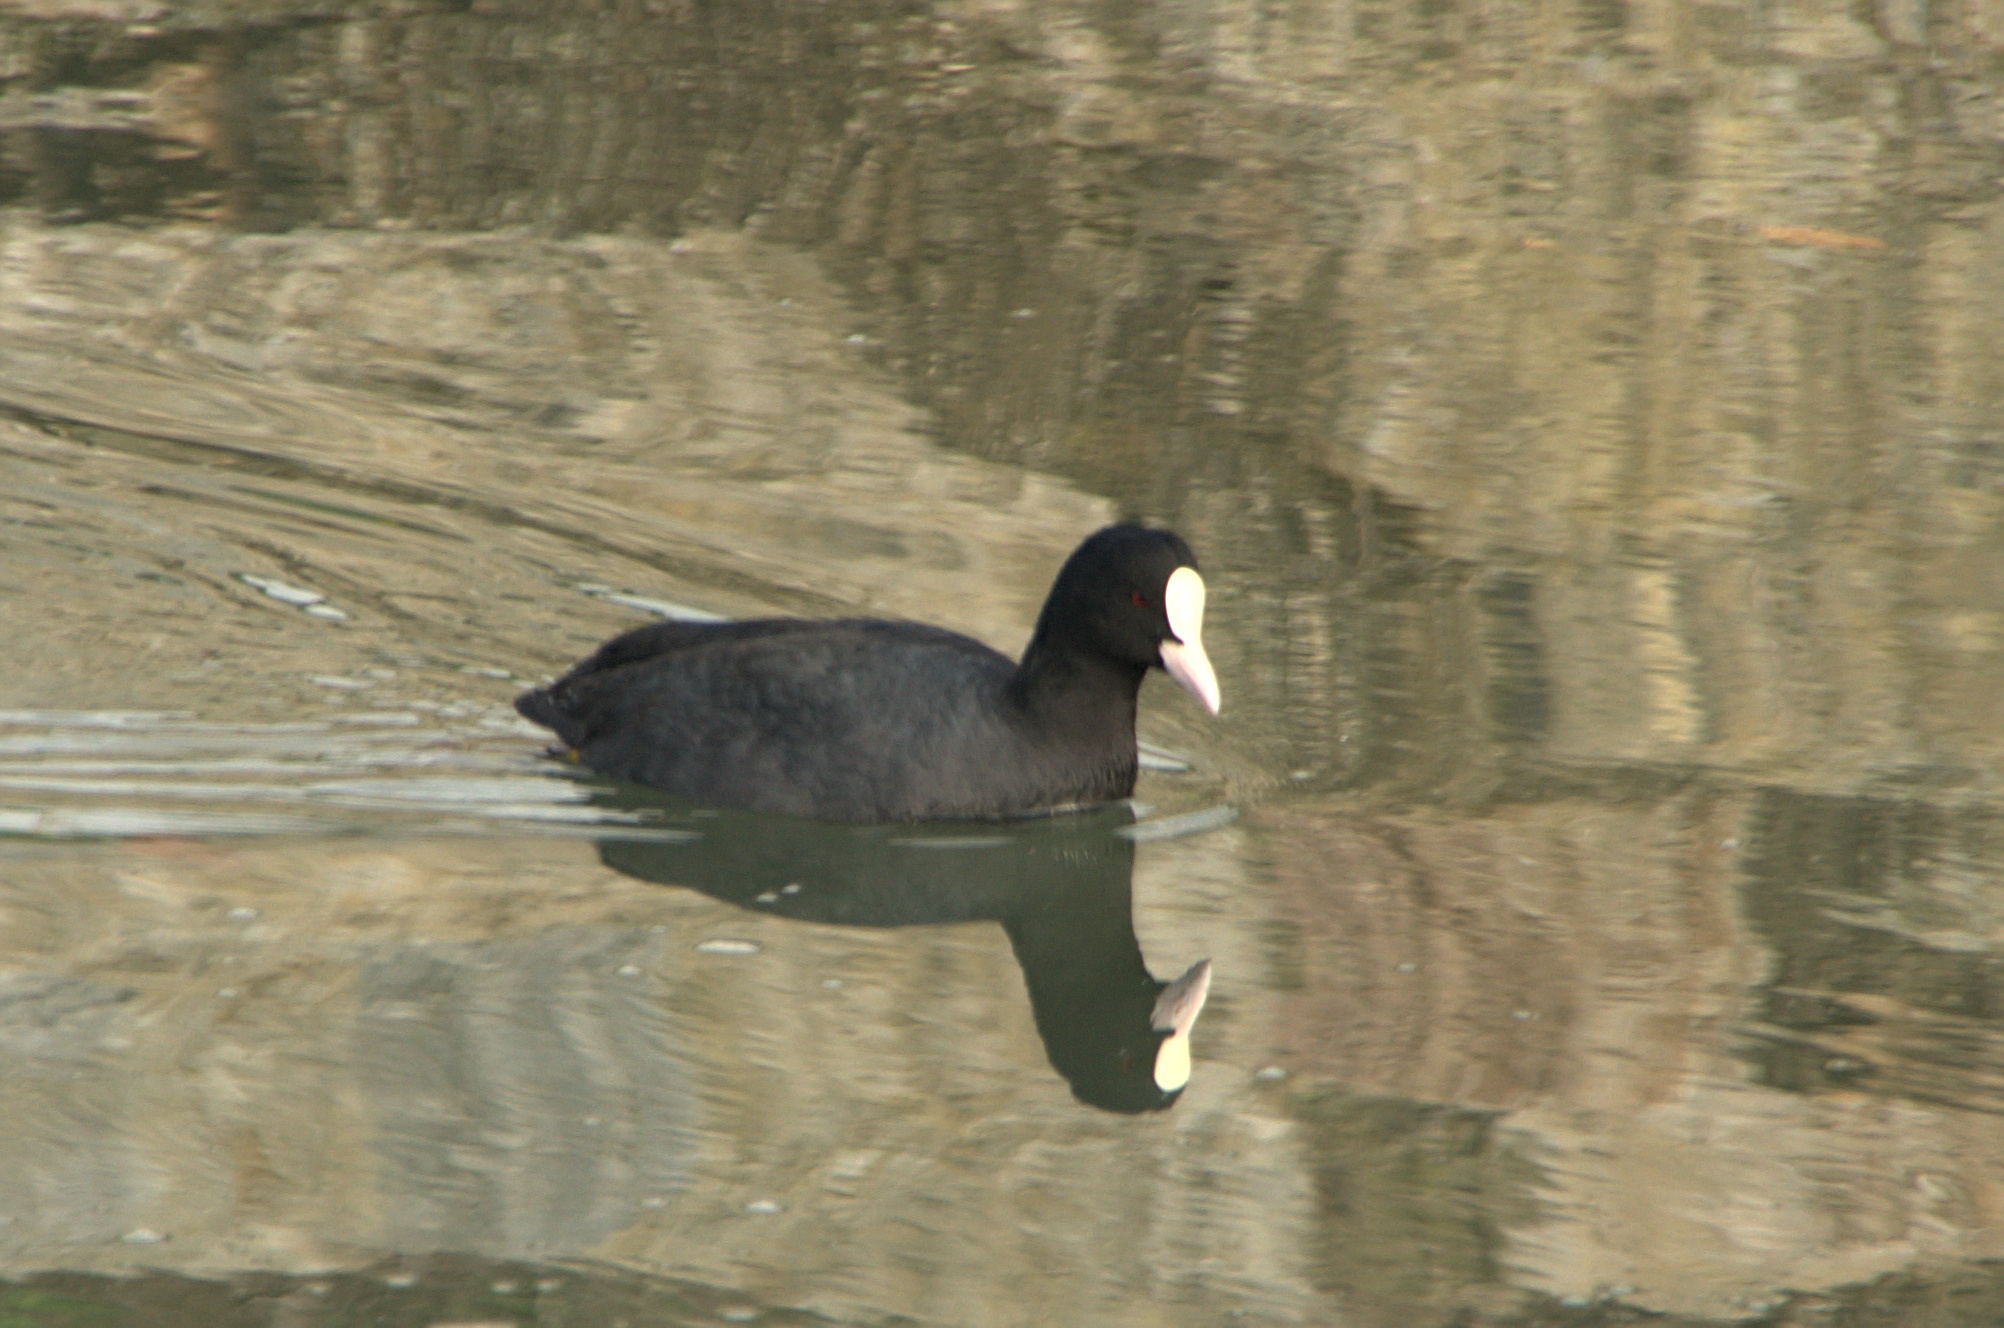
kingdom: Animalia
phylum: Chordata
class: Aves
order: Gruiformes
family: Rallidae
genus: Fulica
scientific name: Fulica atra
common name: Eurasian coot
